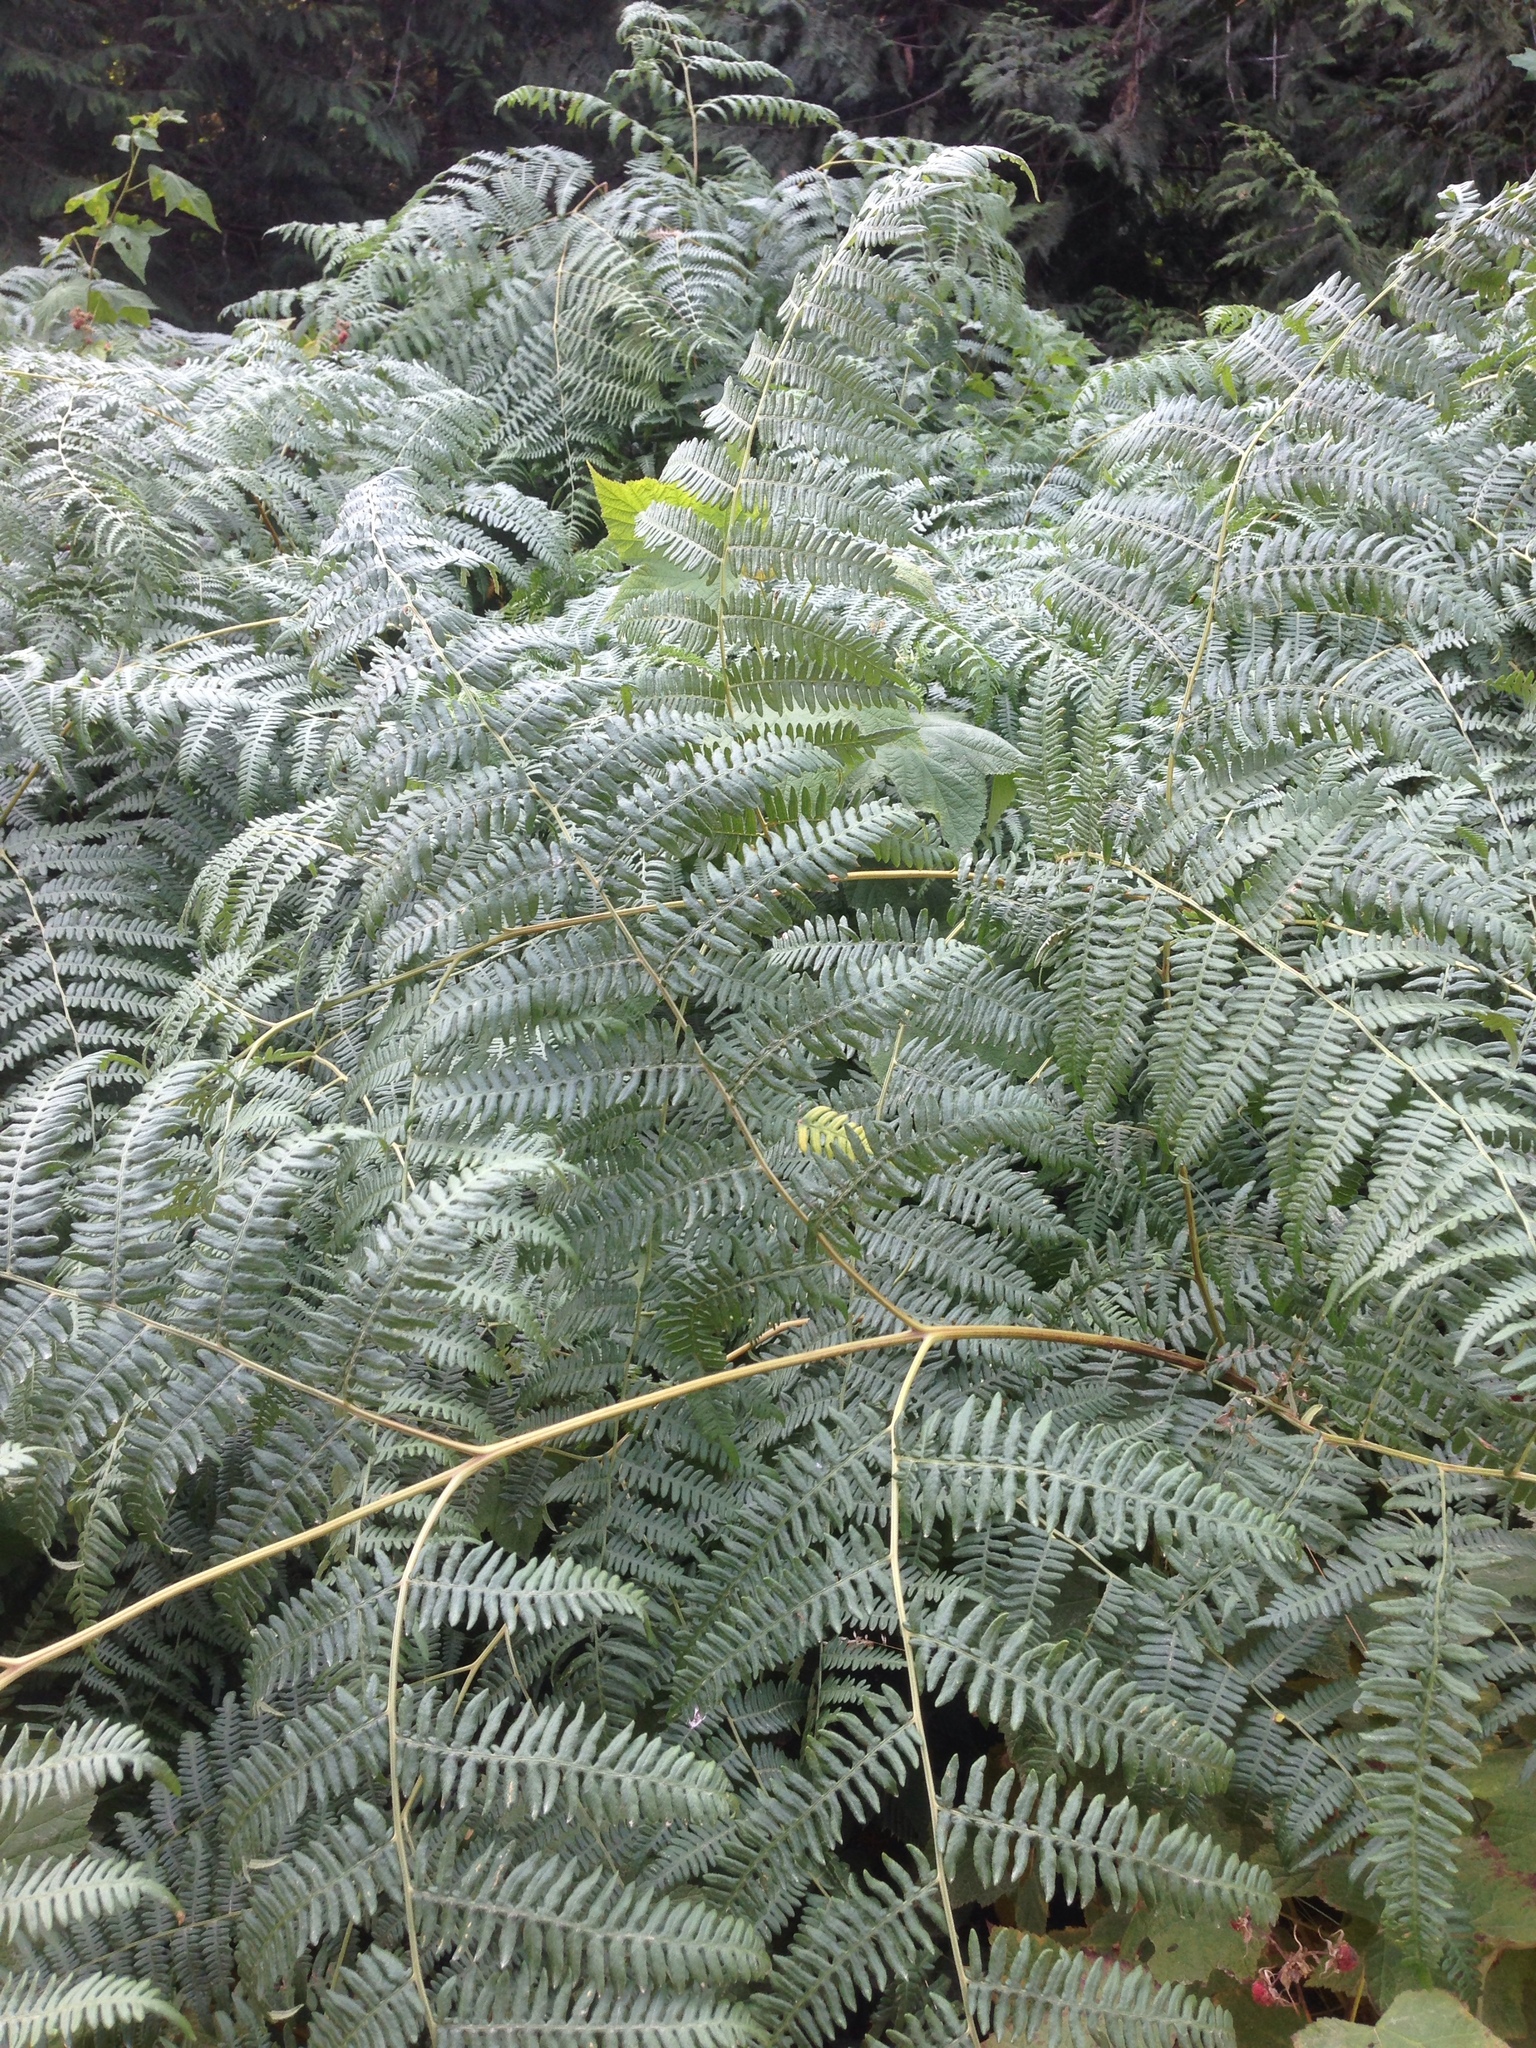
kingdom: Plantae
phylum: Tracheophyta
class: Polypodiopsida
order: Polypodiales
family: Dennstaedtiaceae
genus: Pteridium
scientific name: Pteridium aquilinum
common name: Bracken
